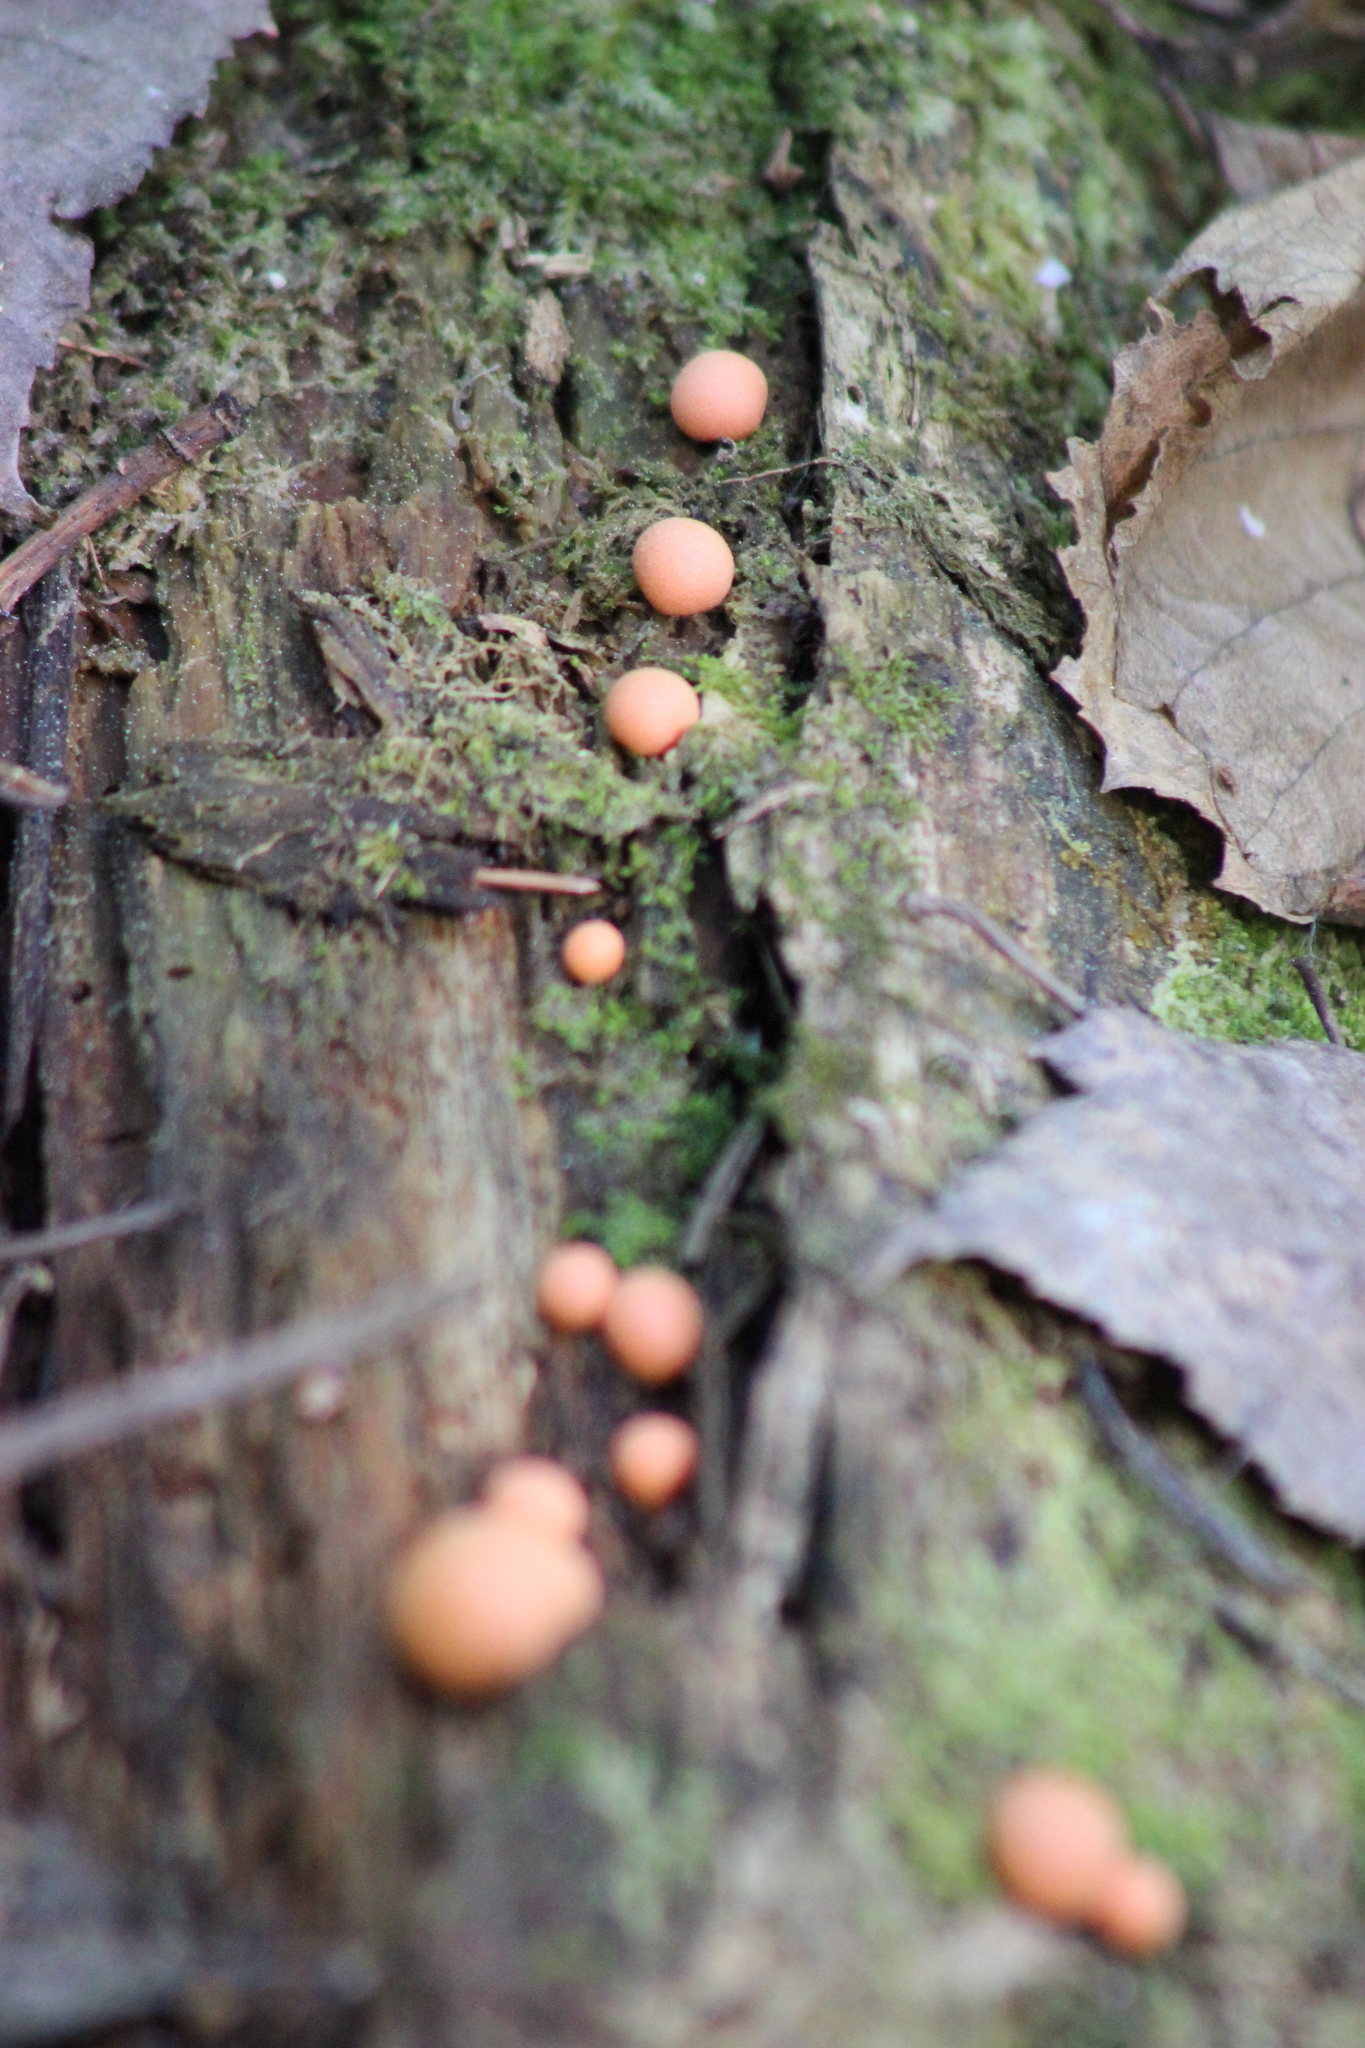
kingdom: Protozoa
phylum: Mycetozoa
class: Myxomycetes
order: Cribrariales
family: Tubiferaceae
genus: Lycogala
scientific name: Lycogala epidendrum
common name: Wolf's milk
